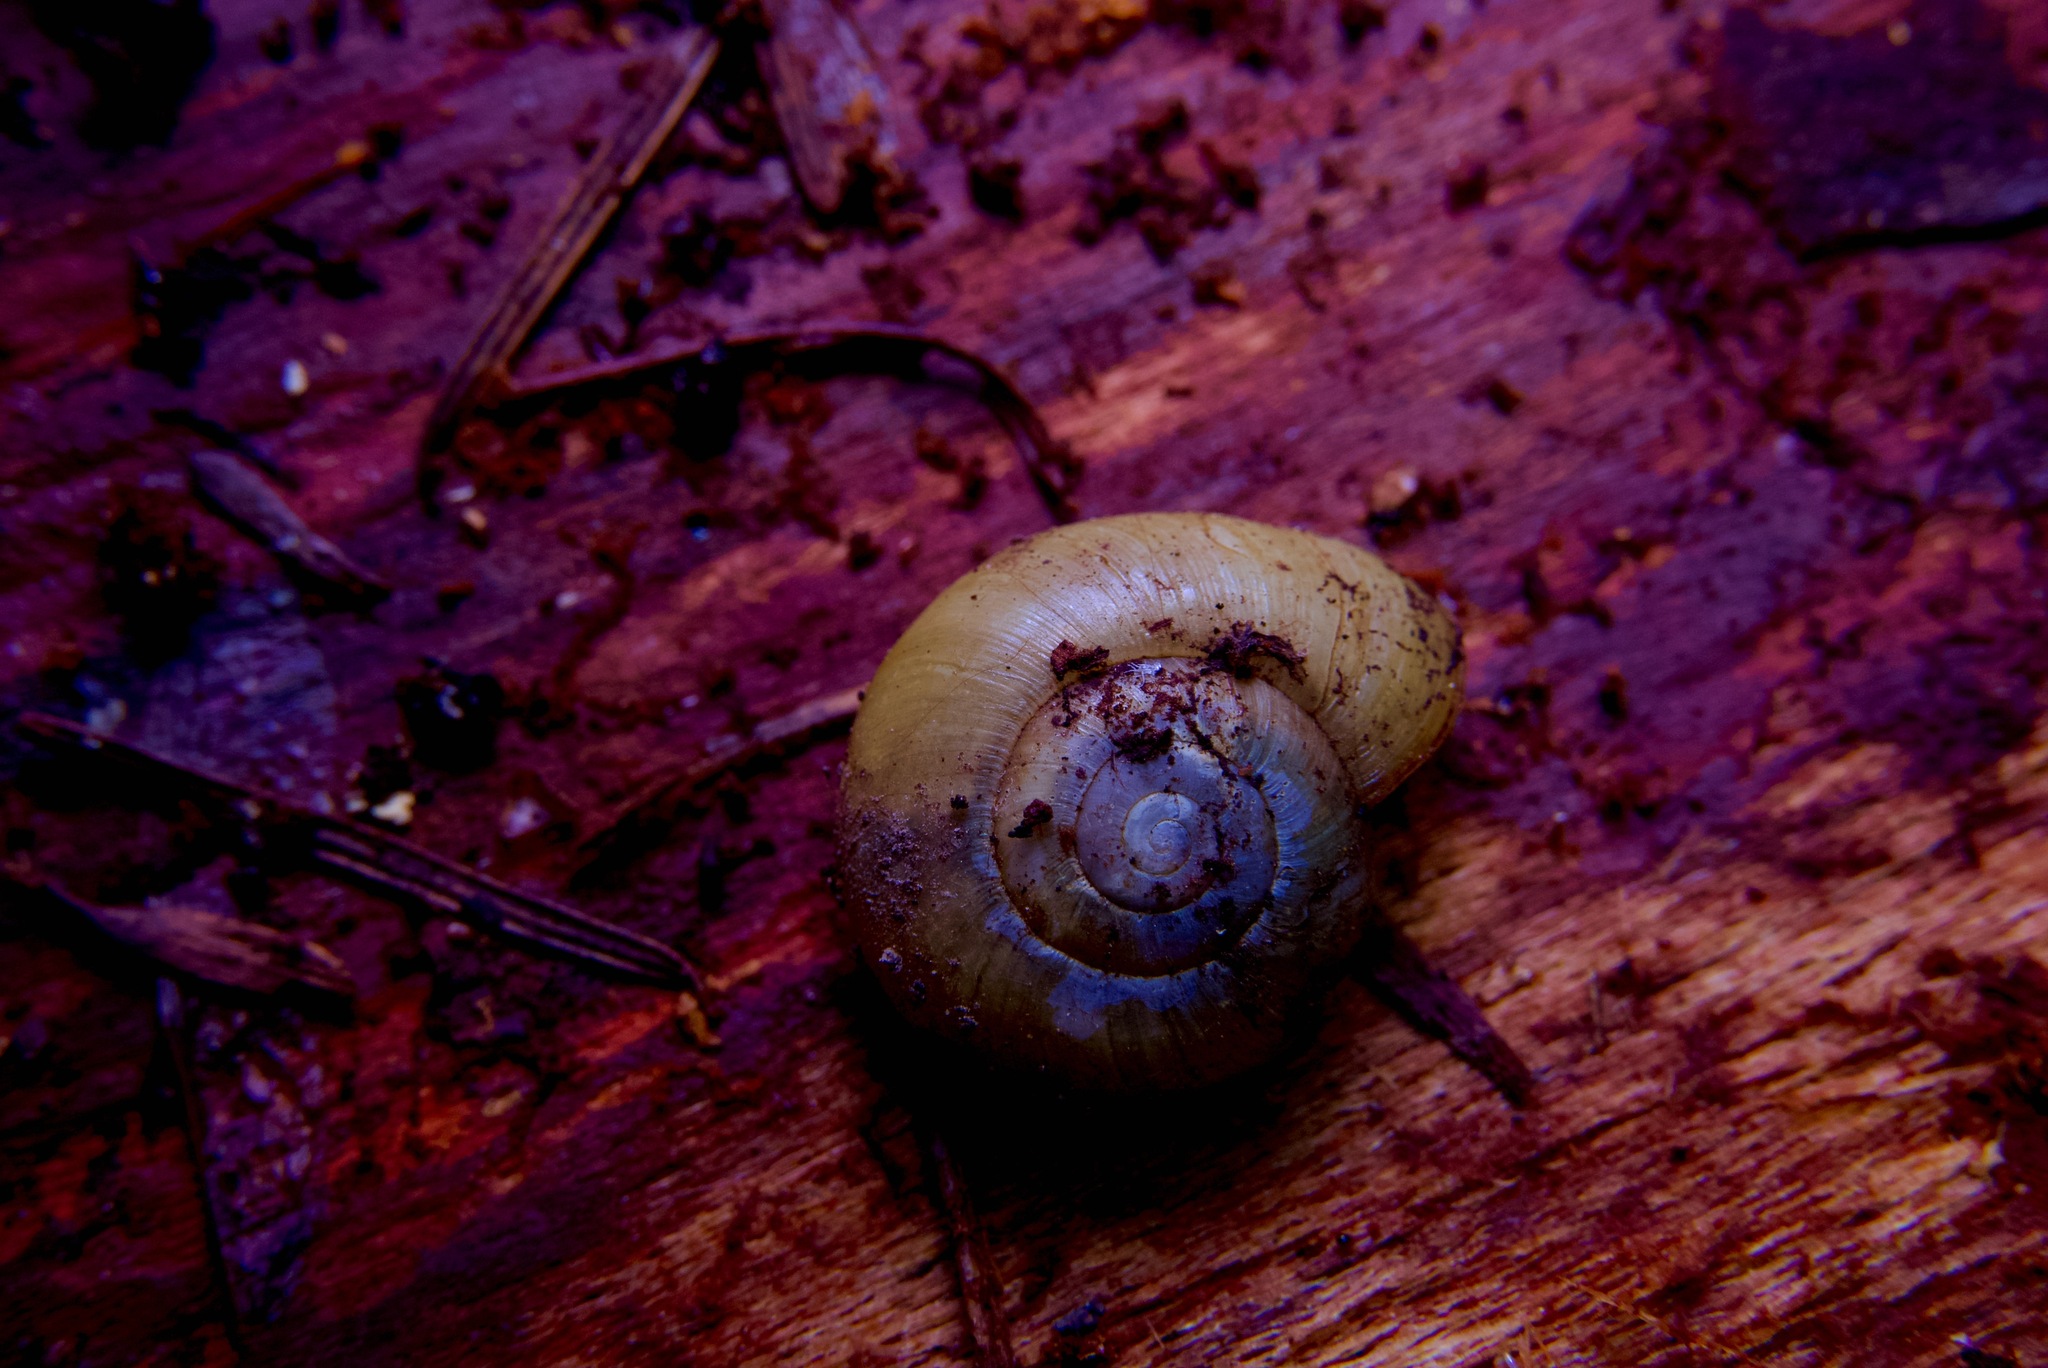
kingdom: Animalia
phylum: Mollusca
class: Gastropoda
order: Stylommatophora
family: Haplotrematidae
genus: Haplotrema
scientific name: Haplotrema minimum
